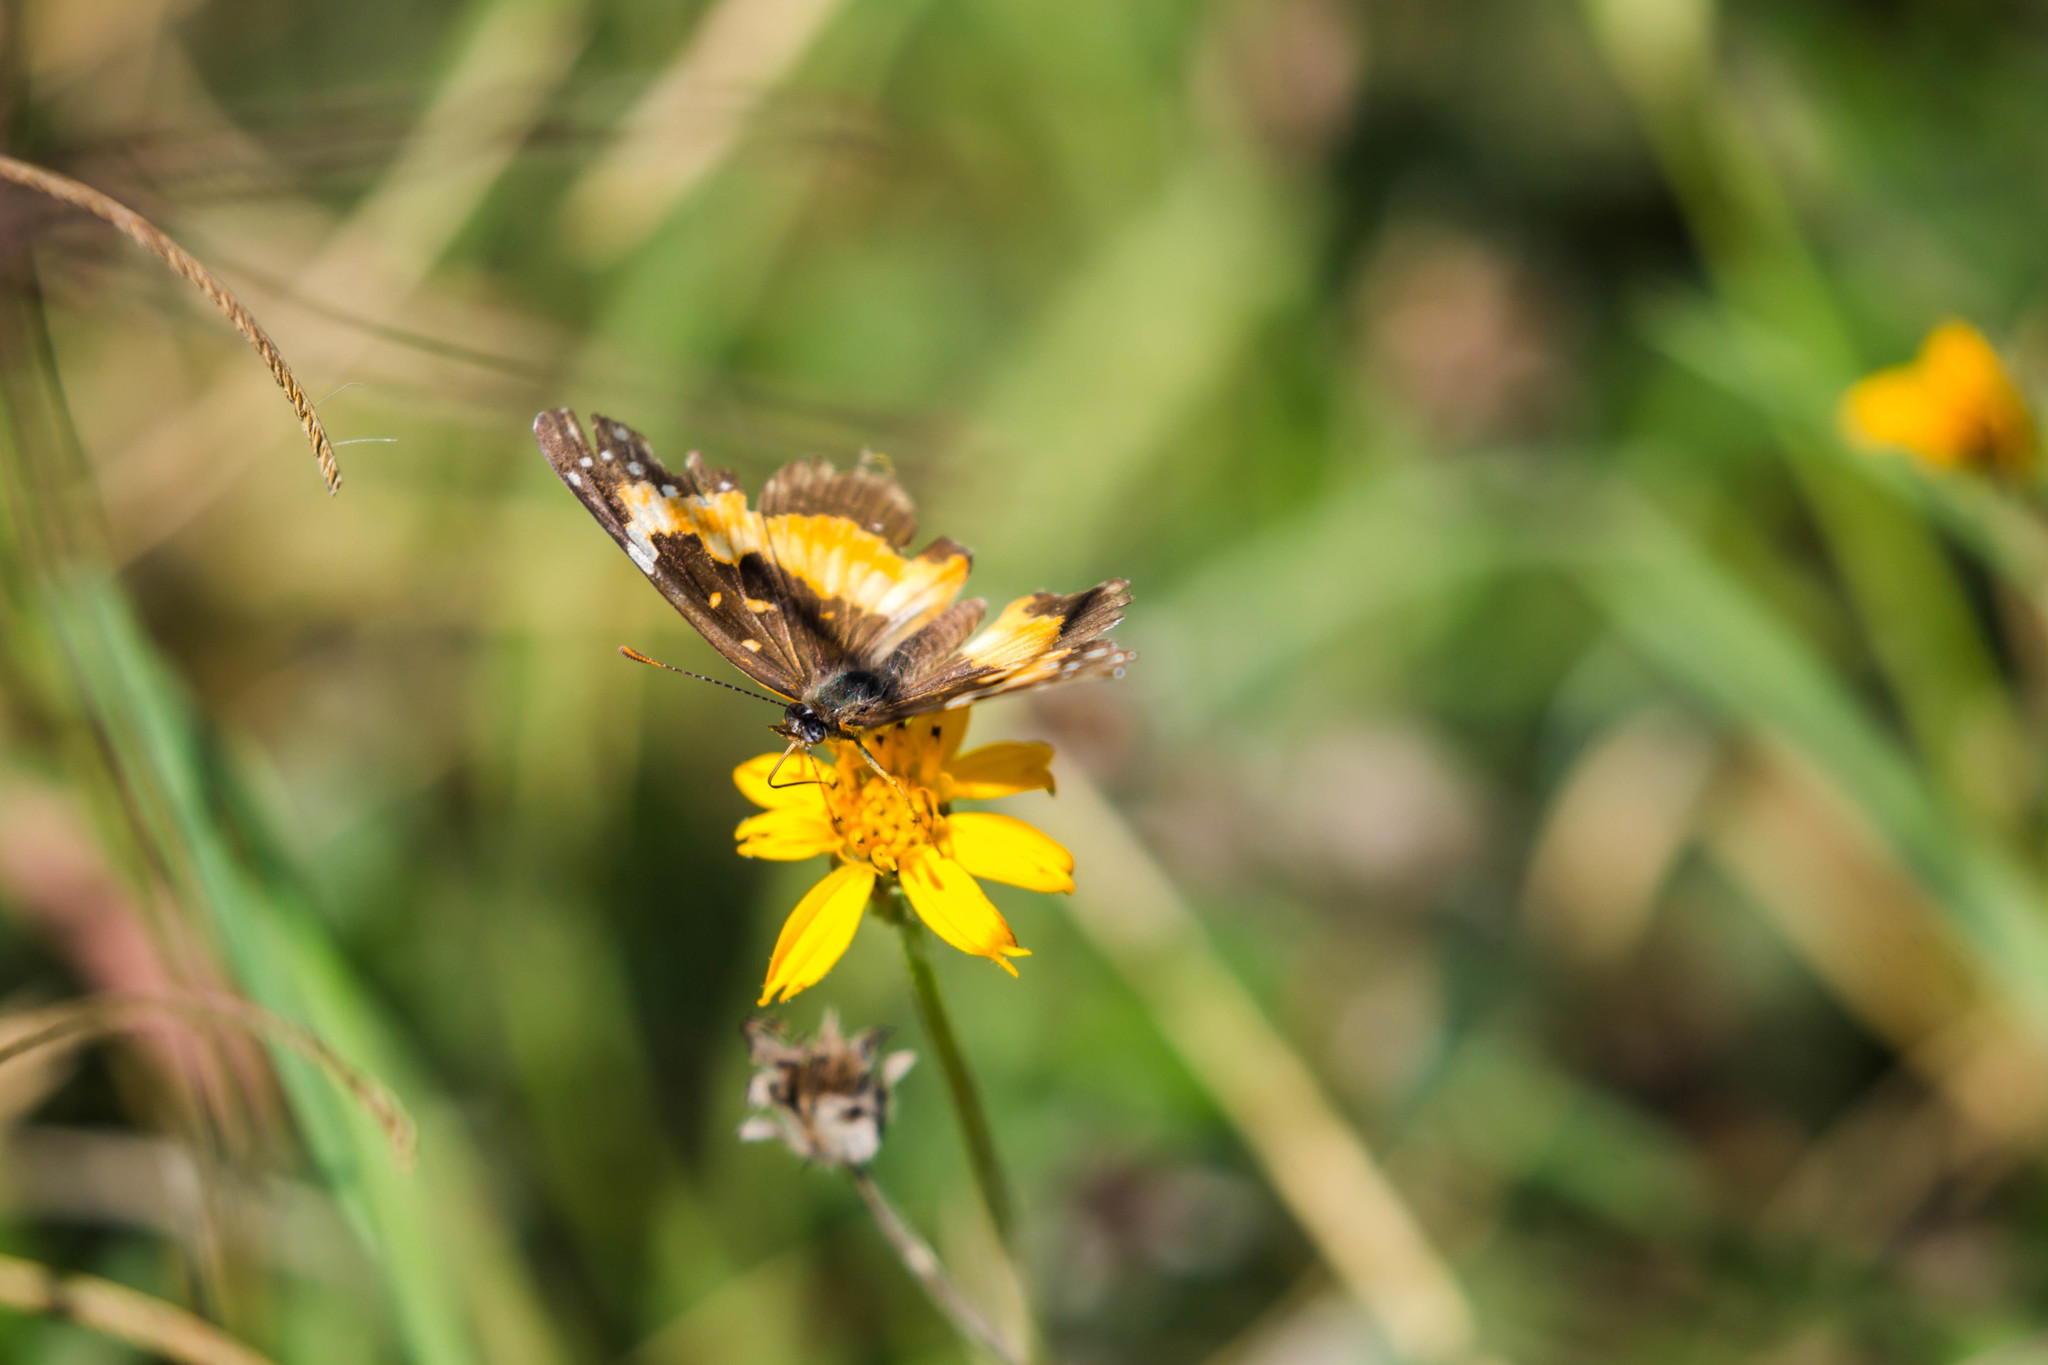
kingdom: Animalia
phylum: Arthropoda
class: Insecta
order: Lepidoptera
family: Nymphalidae
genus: Chlosyne
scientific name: Chlosyne lacinia
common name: Bordered patch
